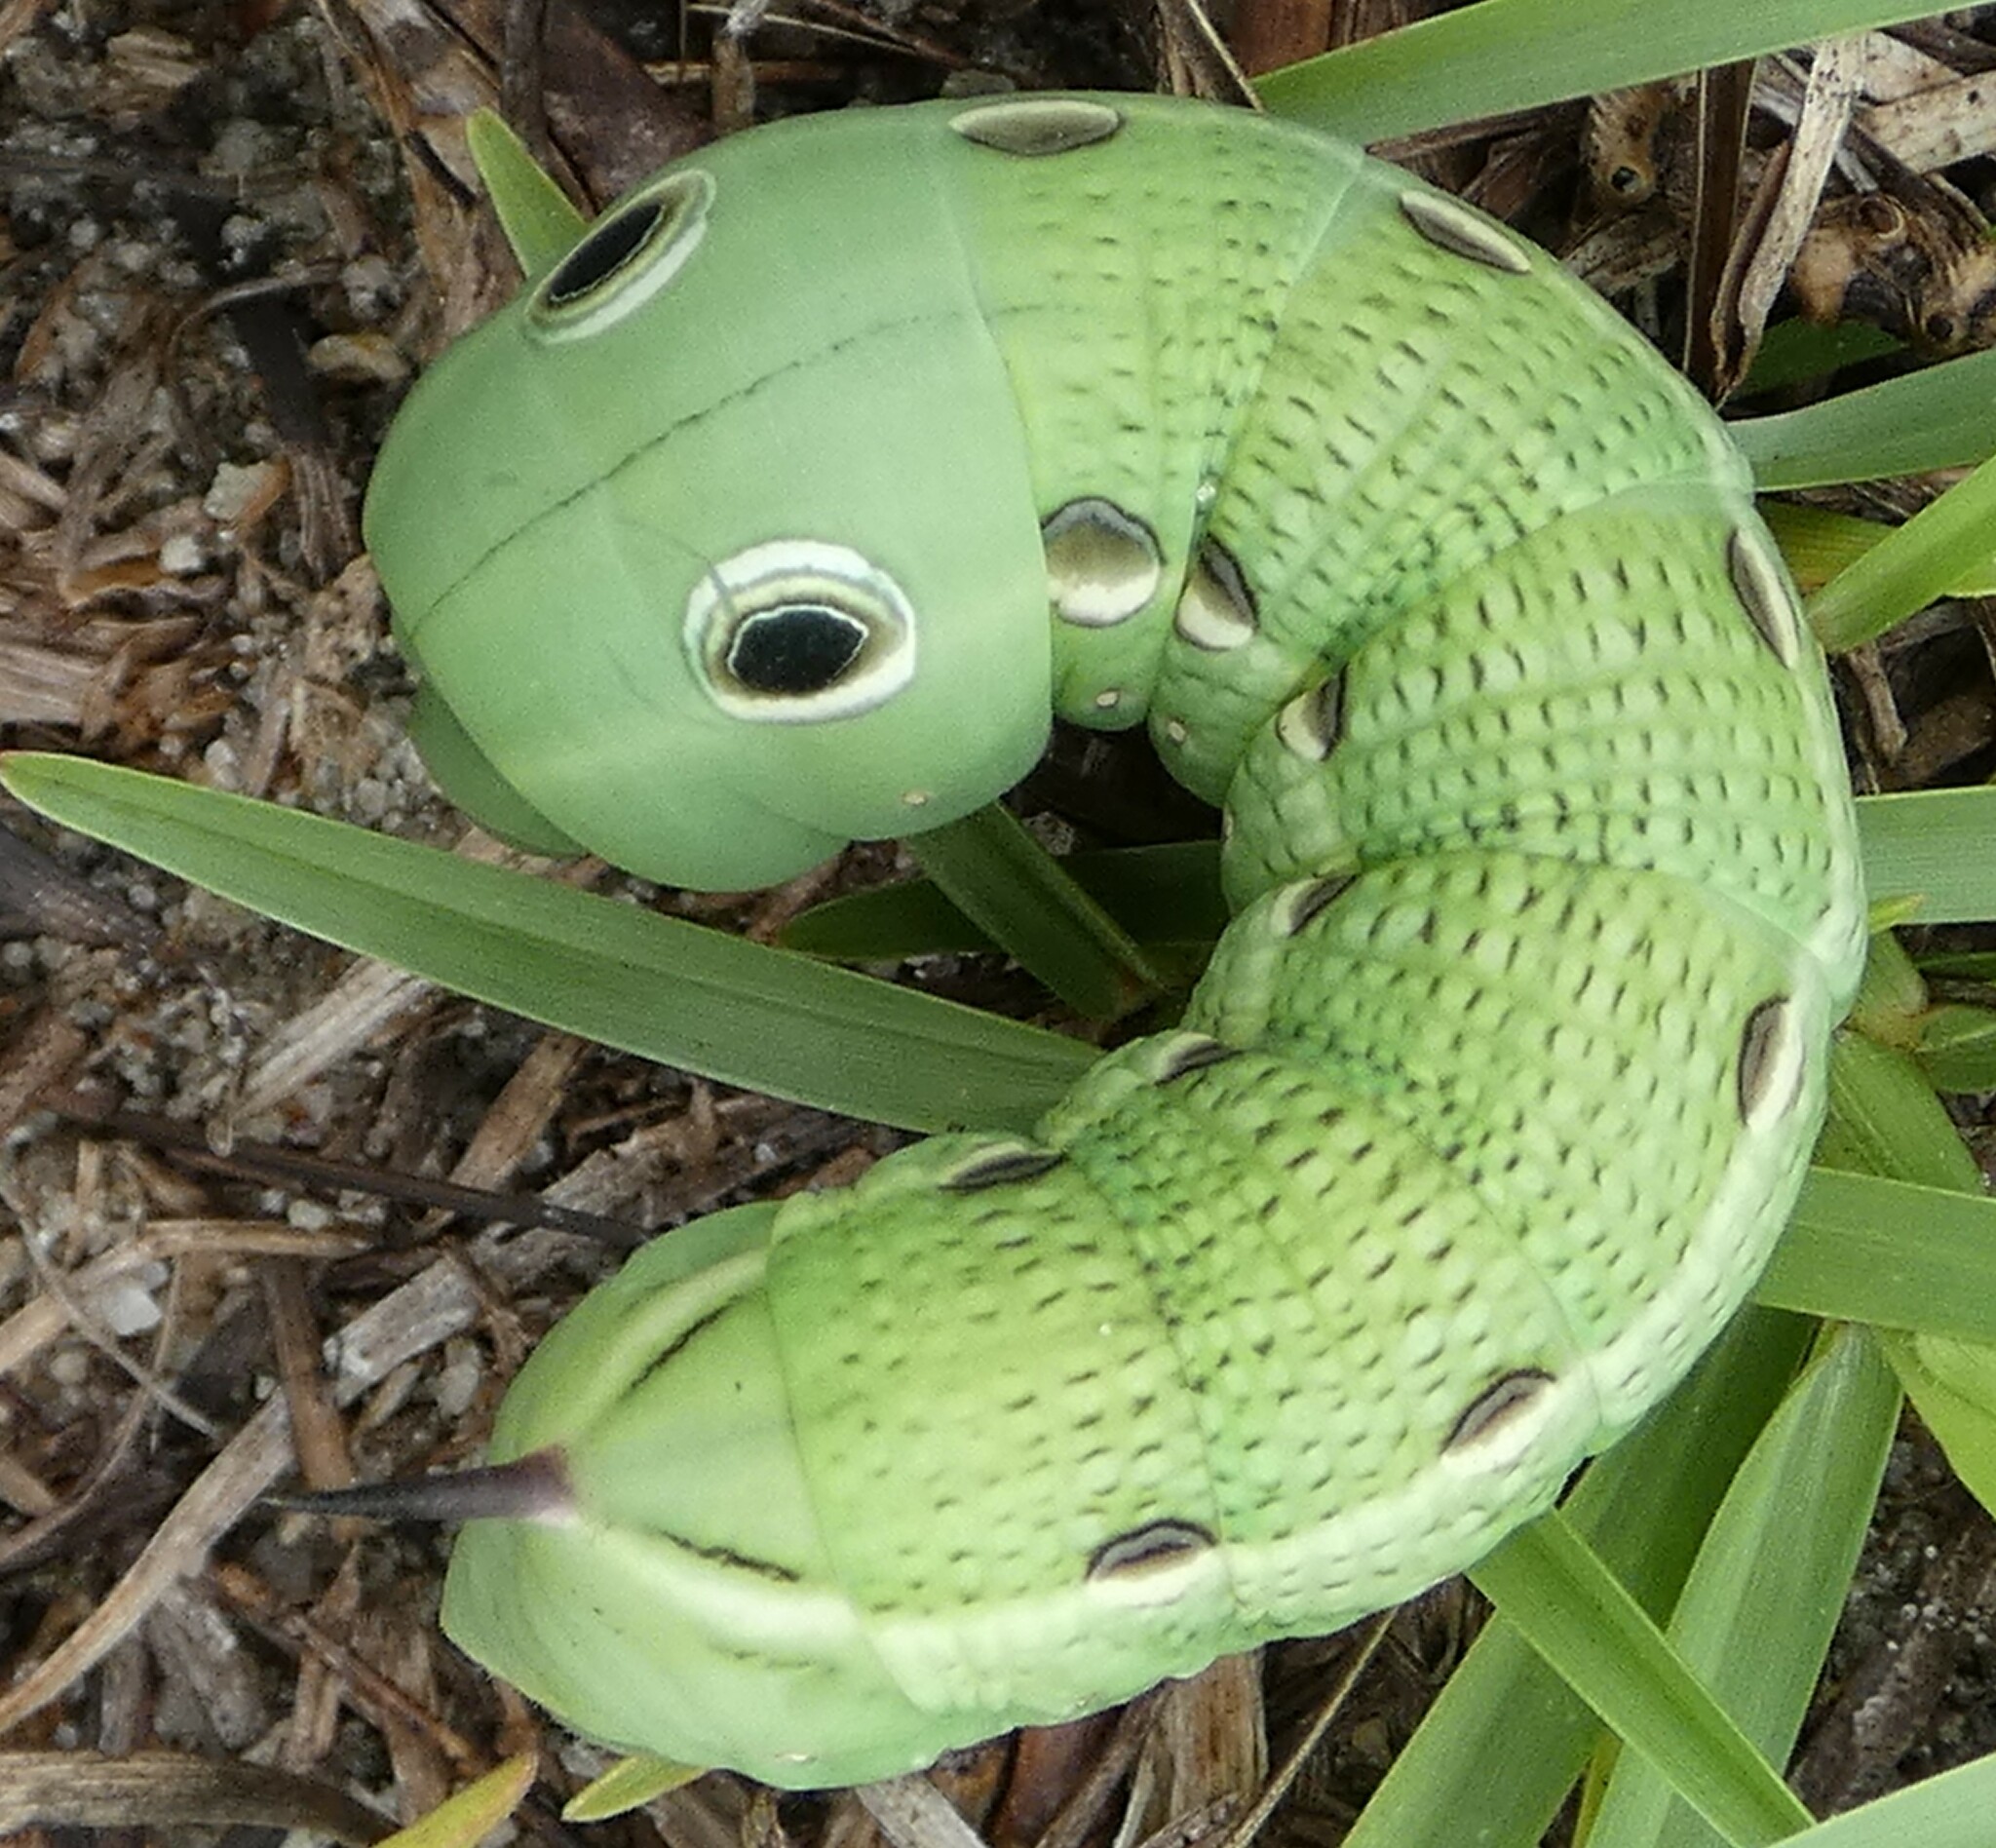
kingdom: Animalia
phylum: Arthropoda
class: Insecta
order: Lepidoptera
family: Sphingidae
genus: Xylophanes
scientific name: Xylophanes tersa
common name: Tersa sphinx
